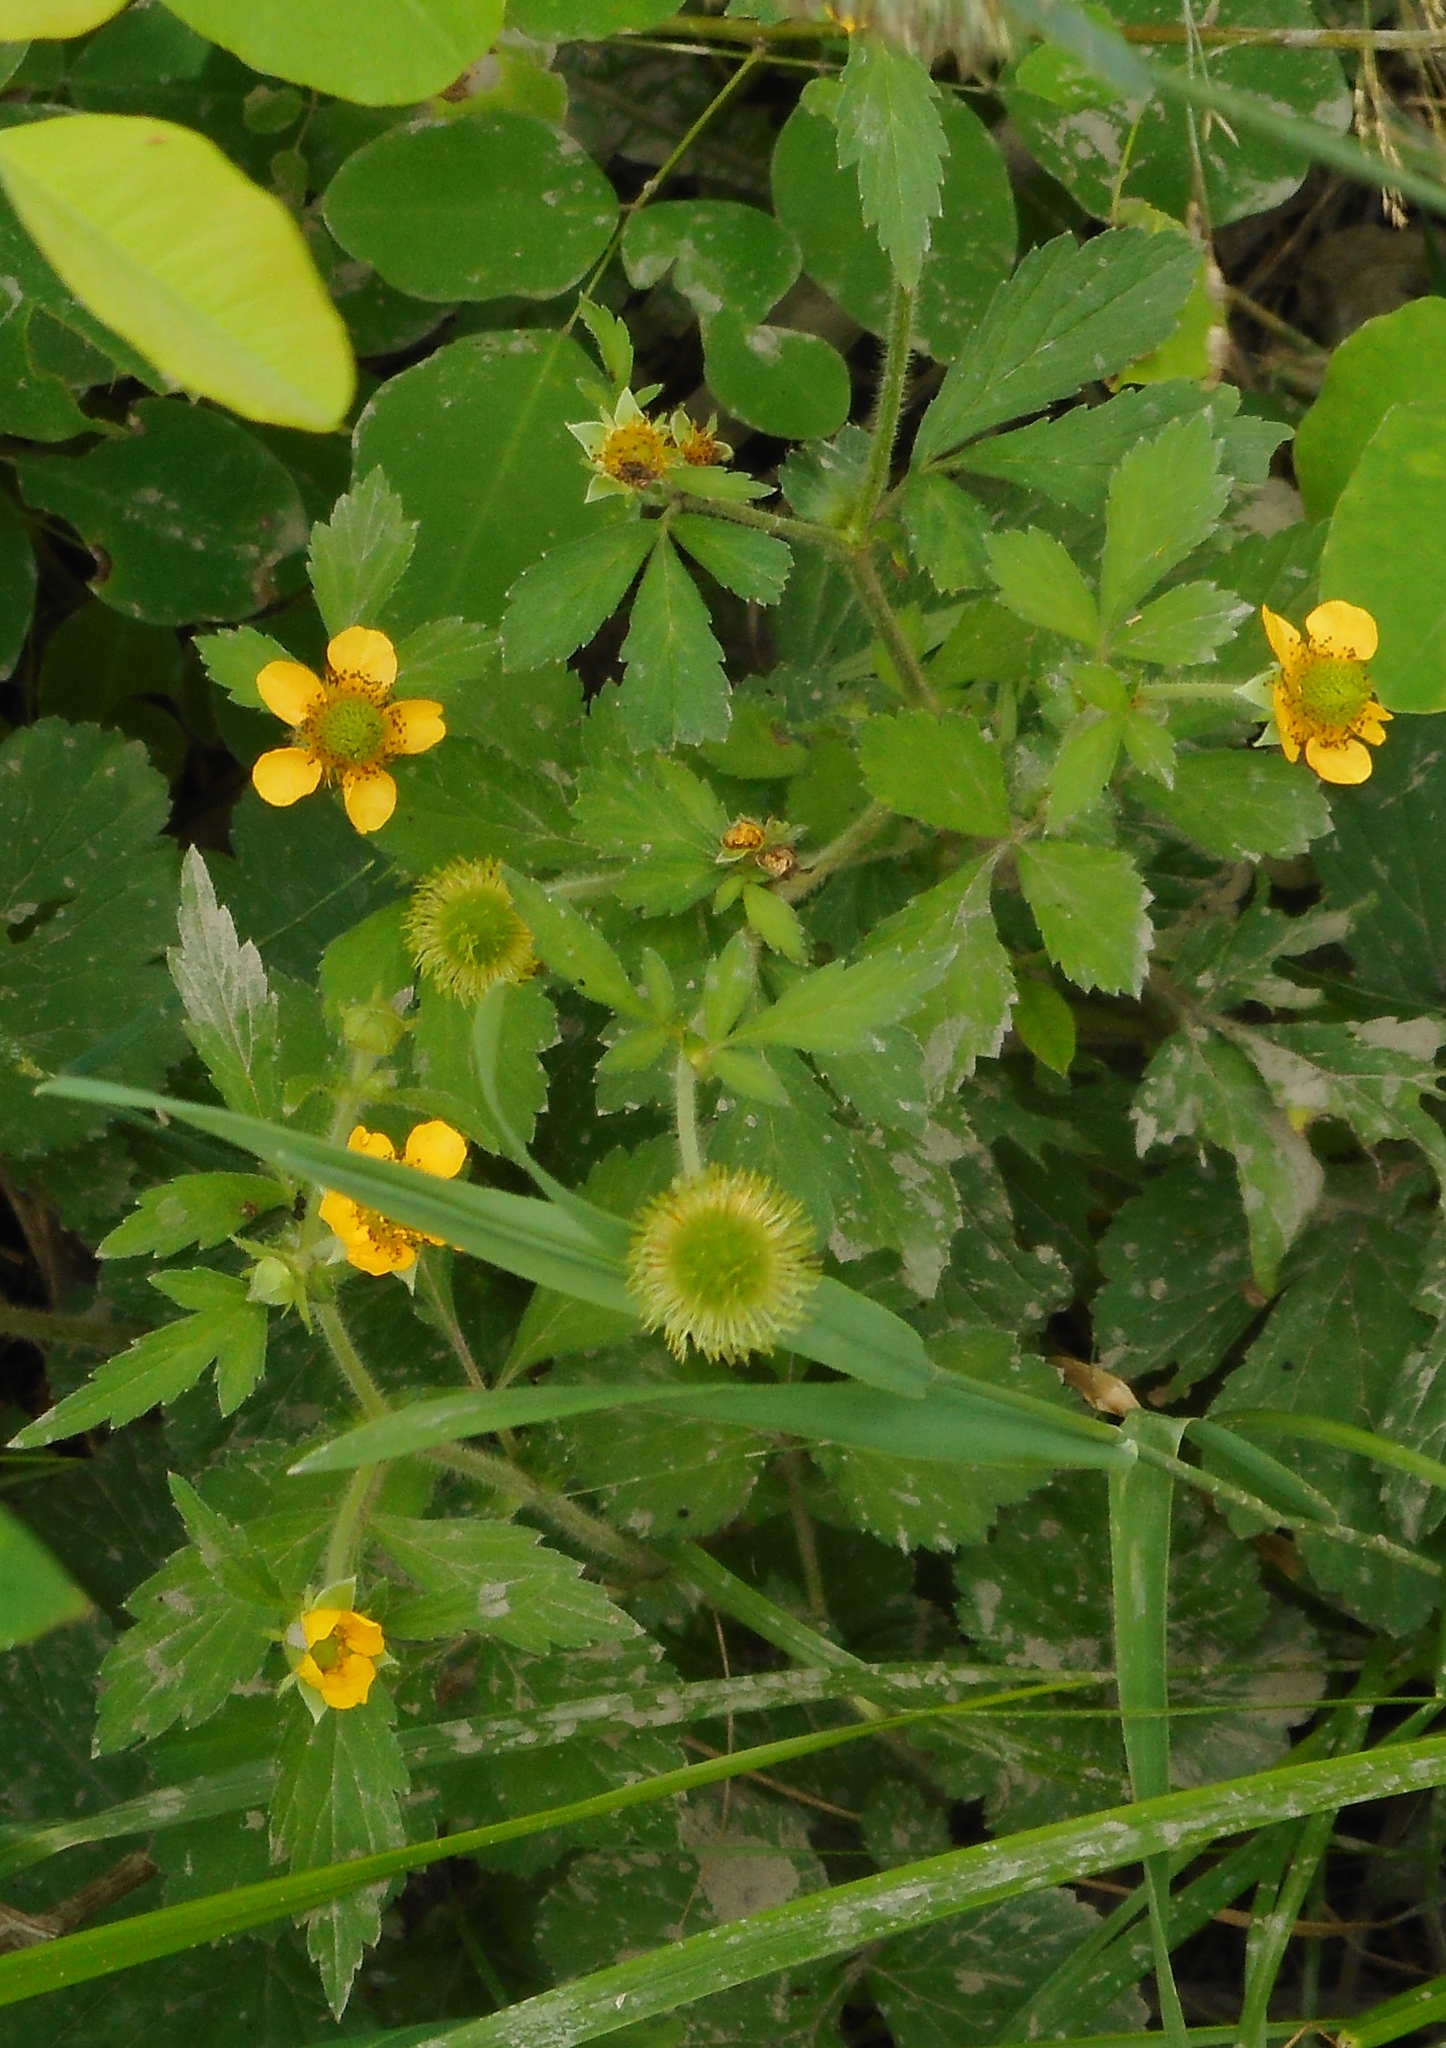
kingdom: Plantae
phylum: Tracheophyta
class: Magnoliopsida
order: Rosales
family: Rosaceae
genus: Geum
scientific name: Geum aleppicum
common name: Yellow avens
